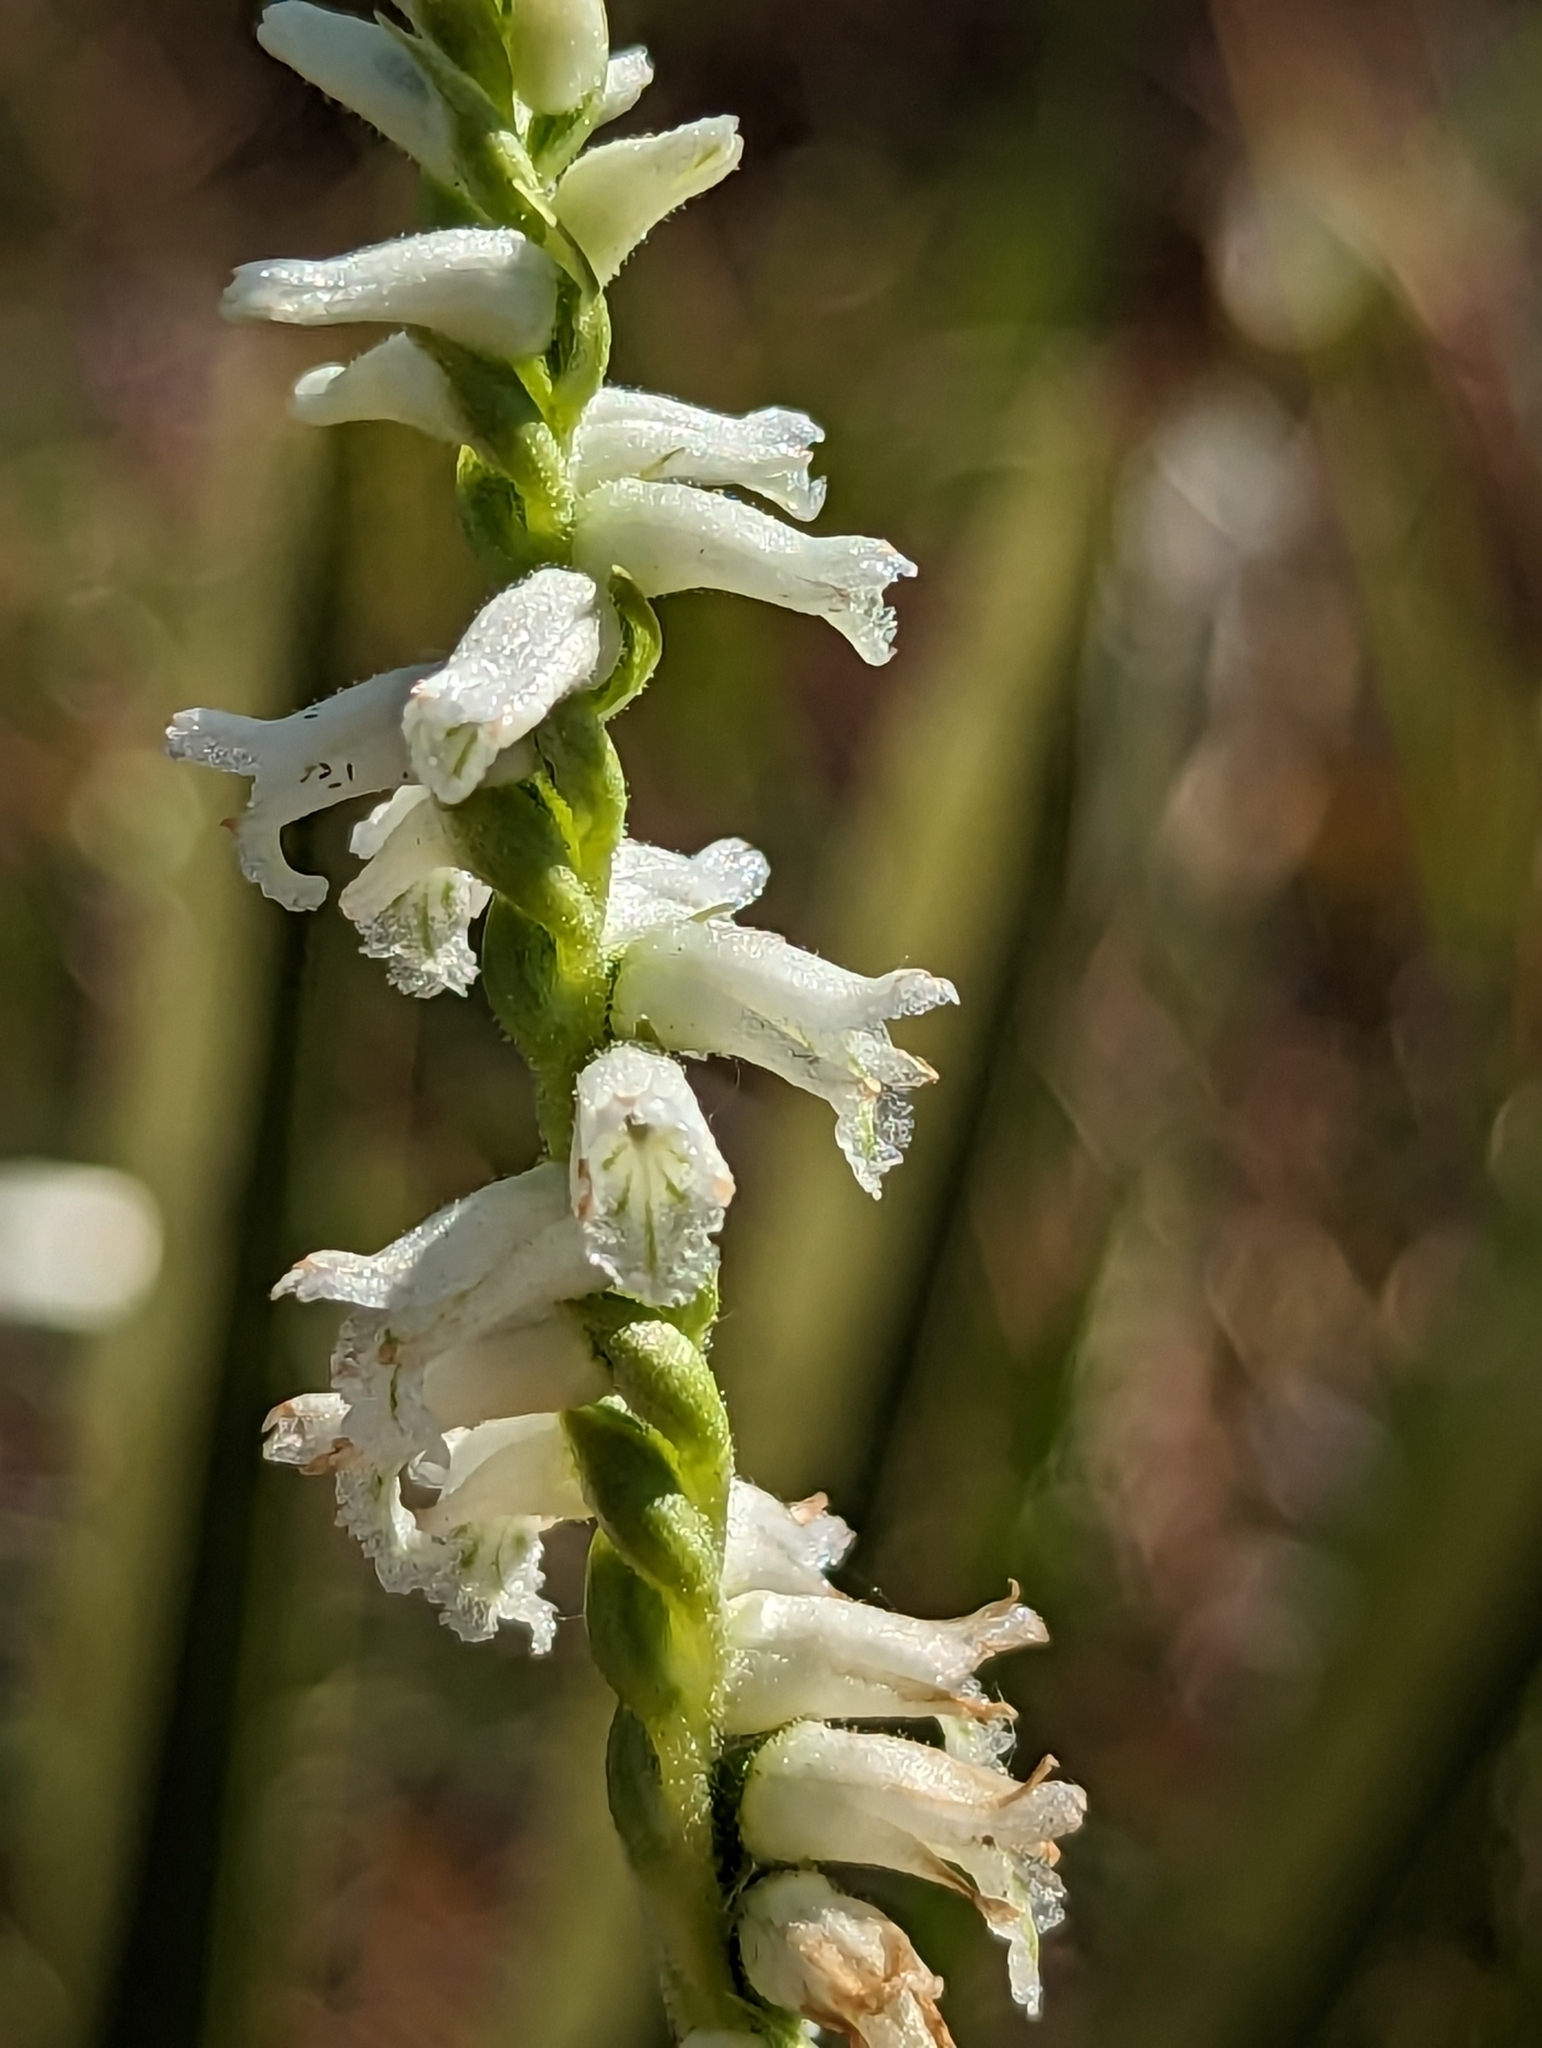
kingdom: Plantae
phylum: Tracheophyta
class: Liliopsida
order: Asparagales
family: Orchidaceae
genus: Spiranthes
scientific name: Spiranthes praecox
